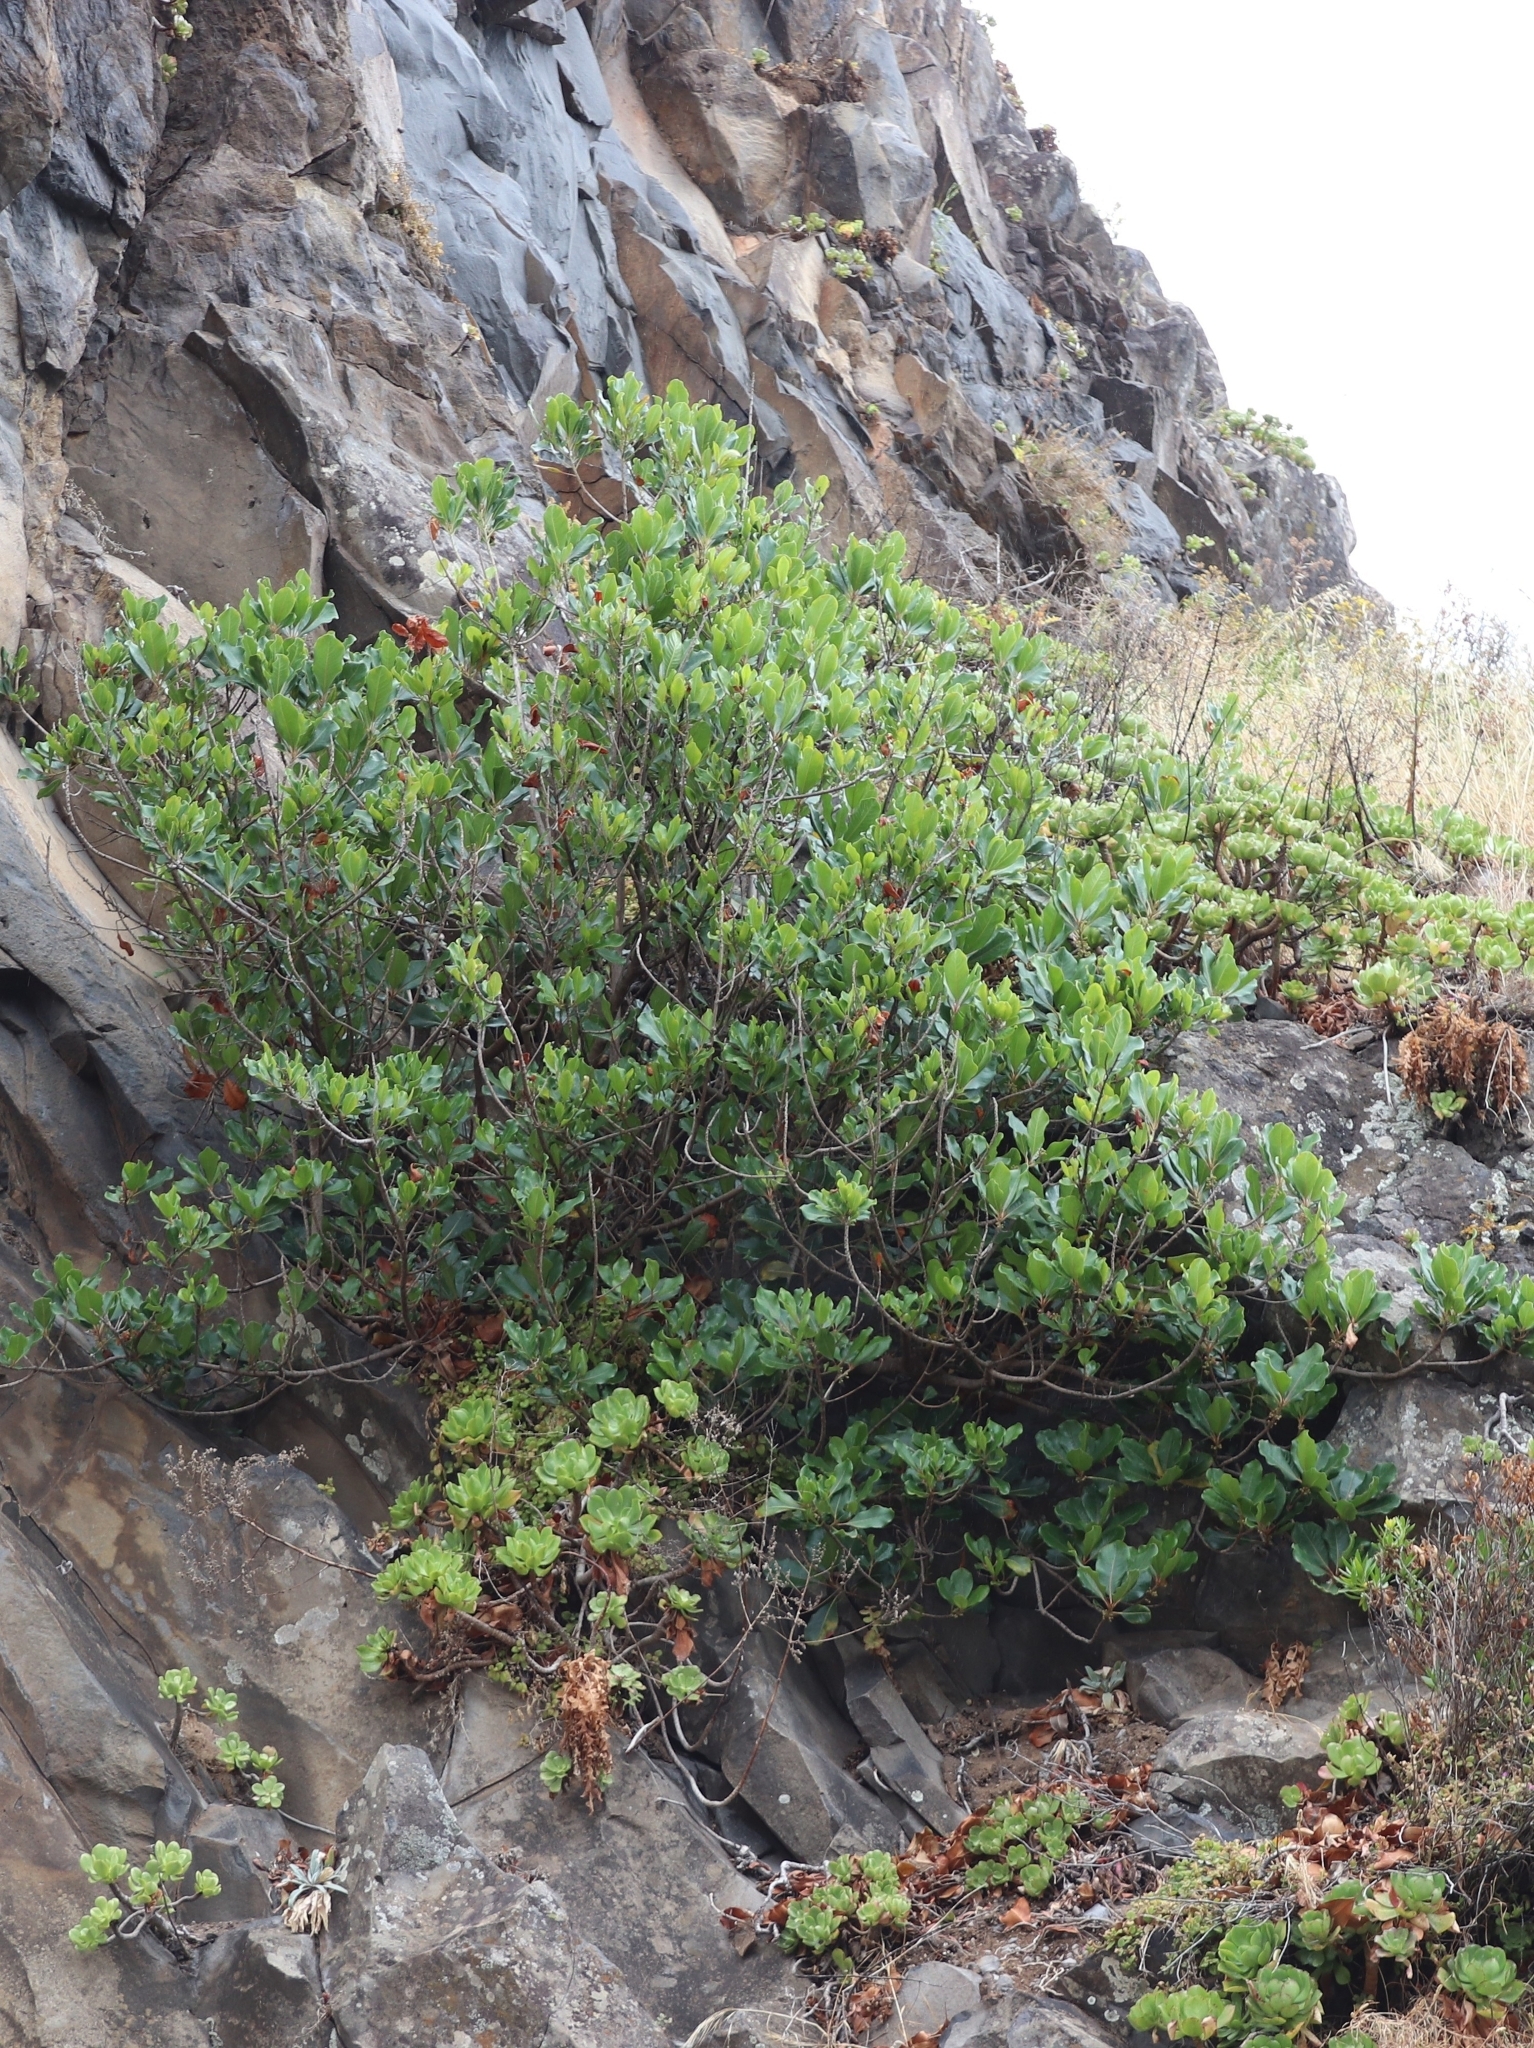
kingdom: Plantae
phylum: Tracheophyta
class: Magnoliopsida
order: Ericales
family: Sapotaceae
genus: Sideroxylon
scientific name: Sideroxylon mirmulans
